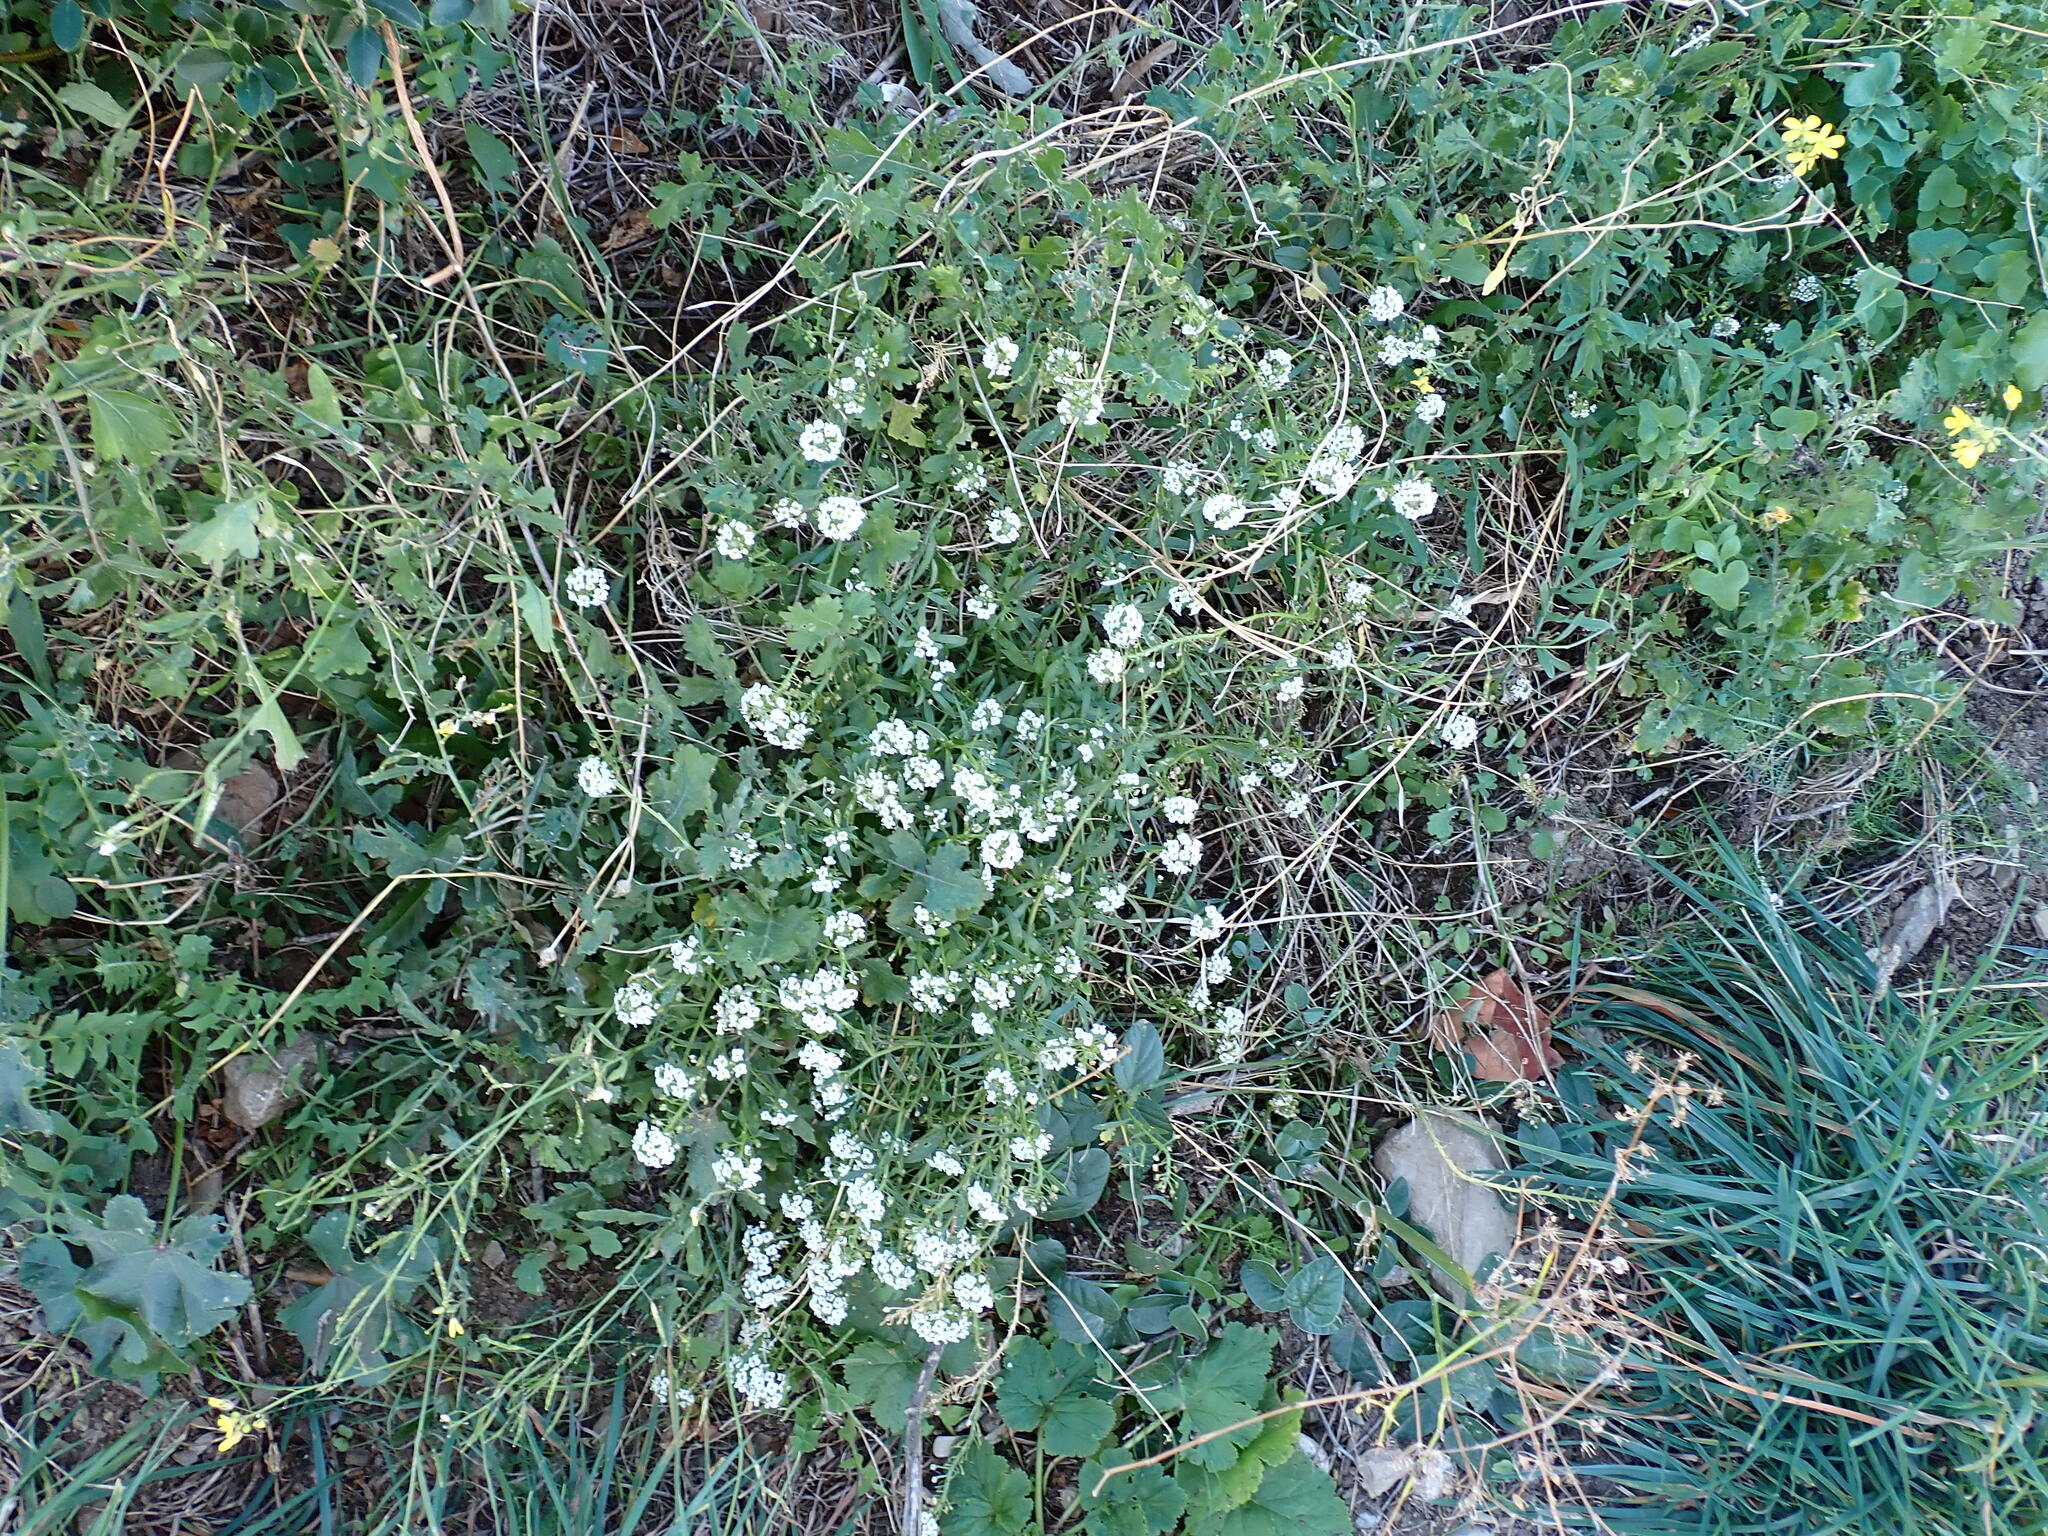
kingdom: Plantae
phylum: Tracheophyta
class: Magnoliopsida
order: Brassicales
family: Brassicaceae
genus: Lobularia
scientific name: Lobularia maritima
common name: Sweet alison
